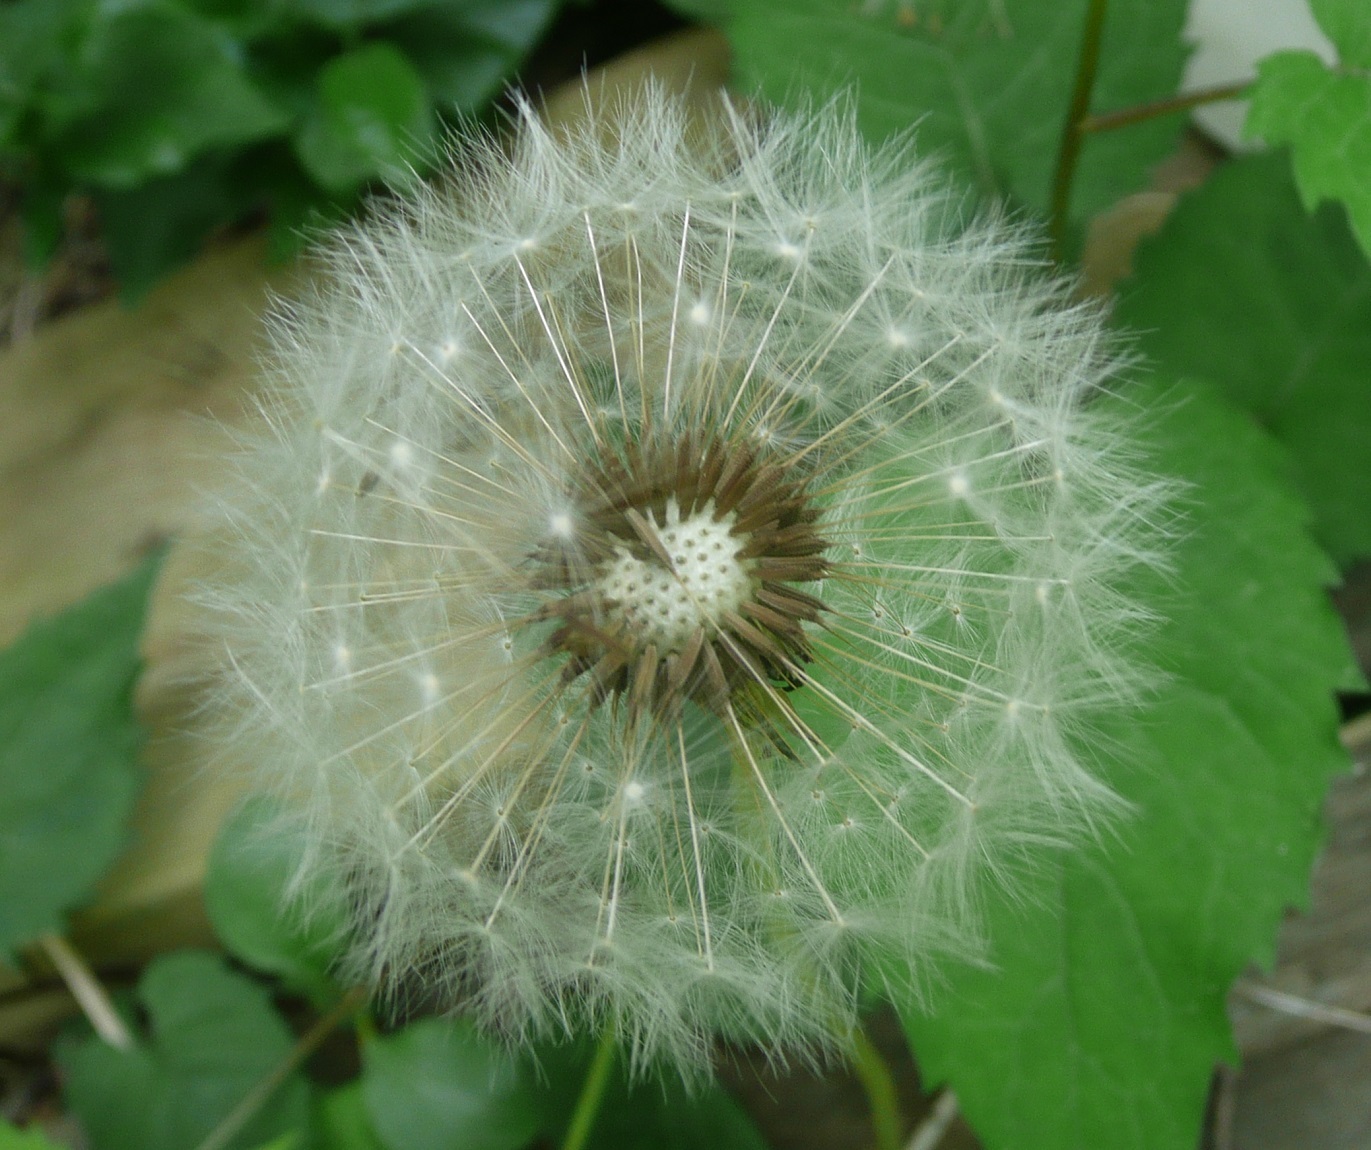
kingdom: Plantae
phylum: Tracheophyta
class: Magnoliopsida
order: Asterales
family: Asteraceae
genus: Taraxacum
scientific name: Taraxacum officinale
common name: Common dandelion
